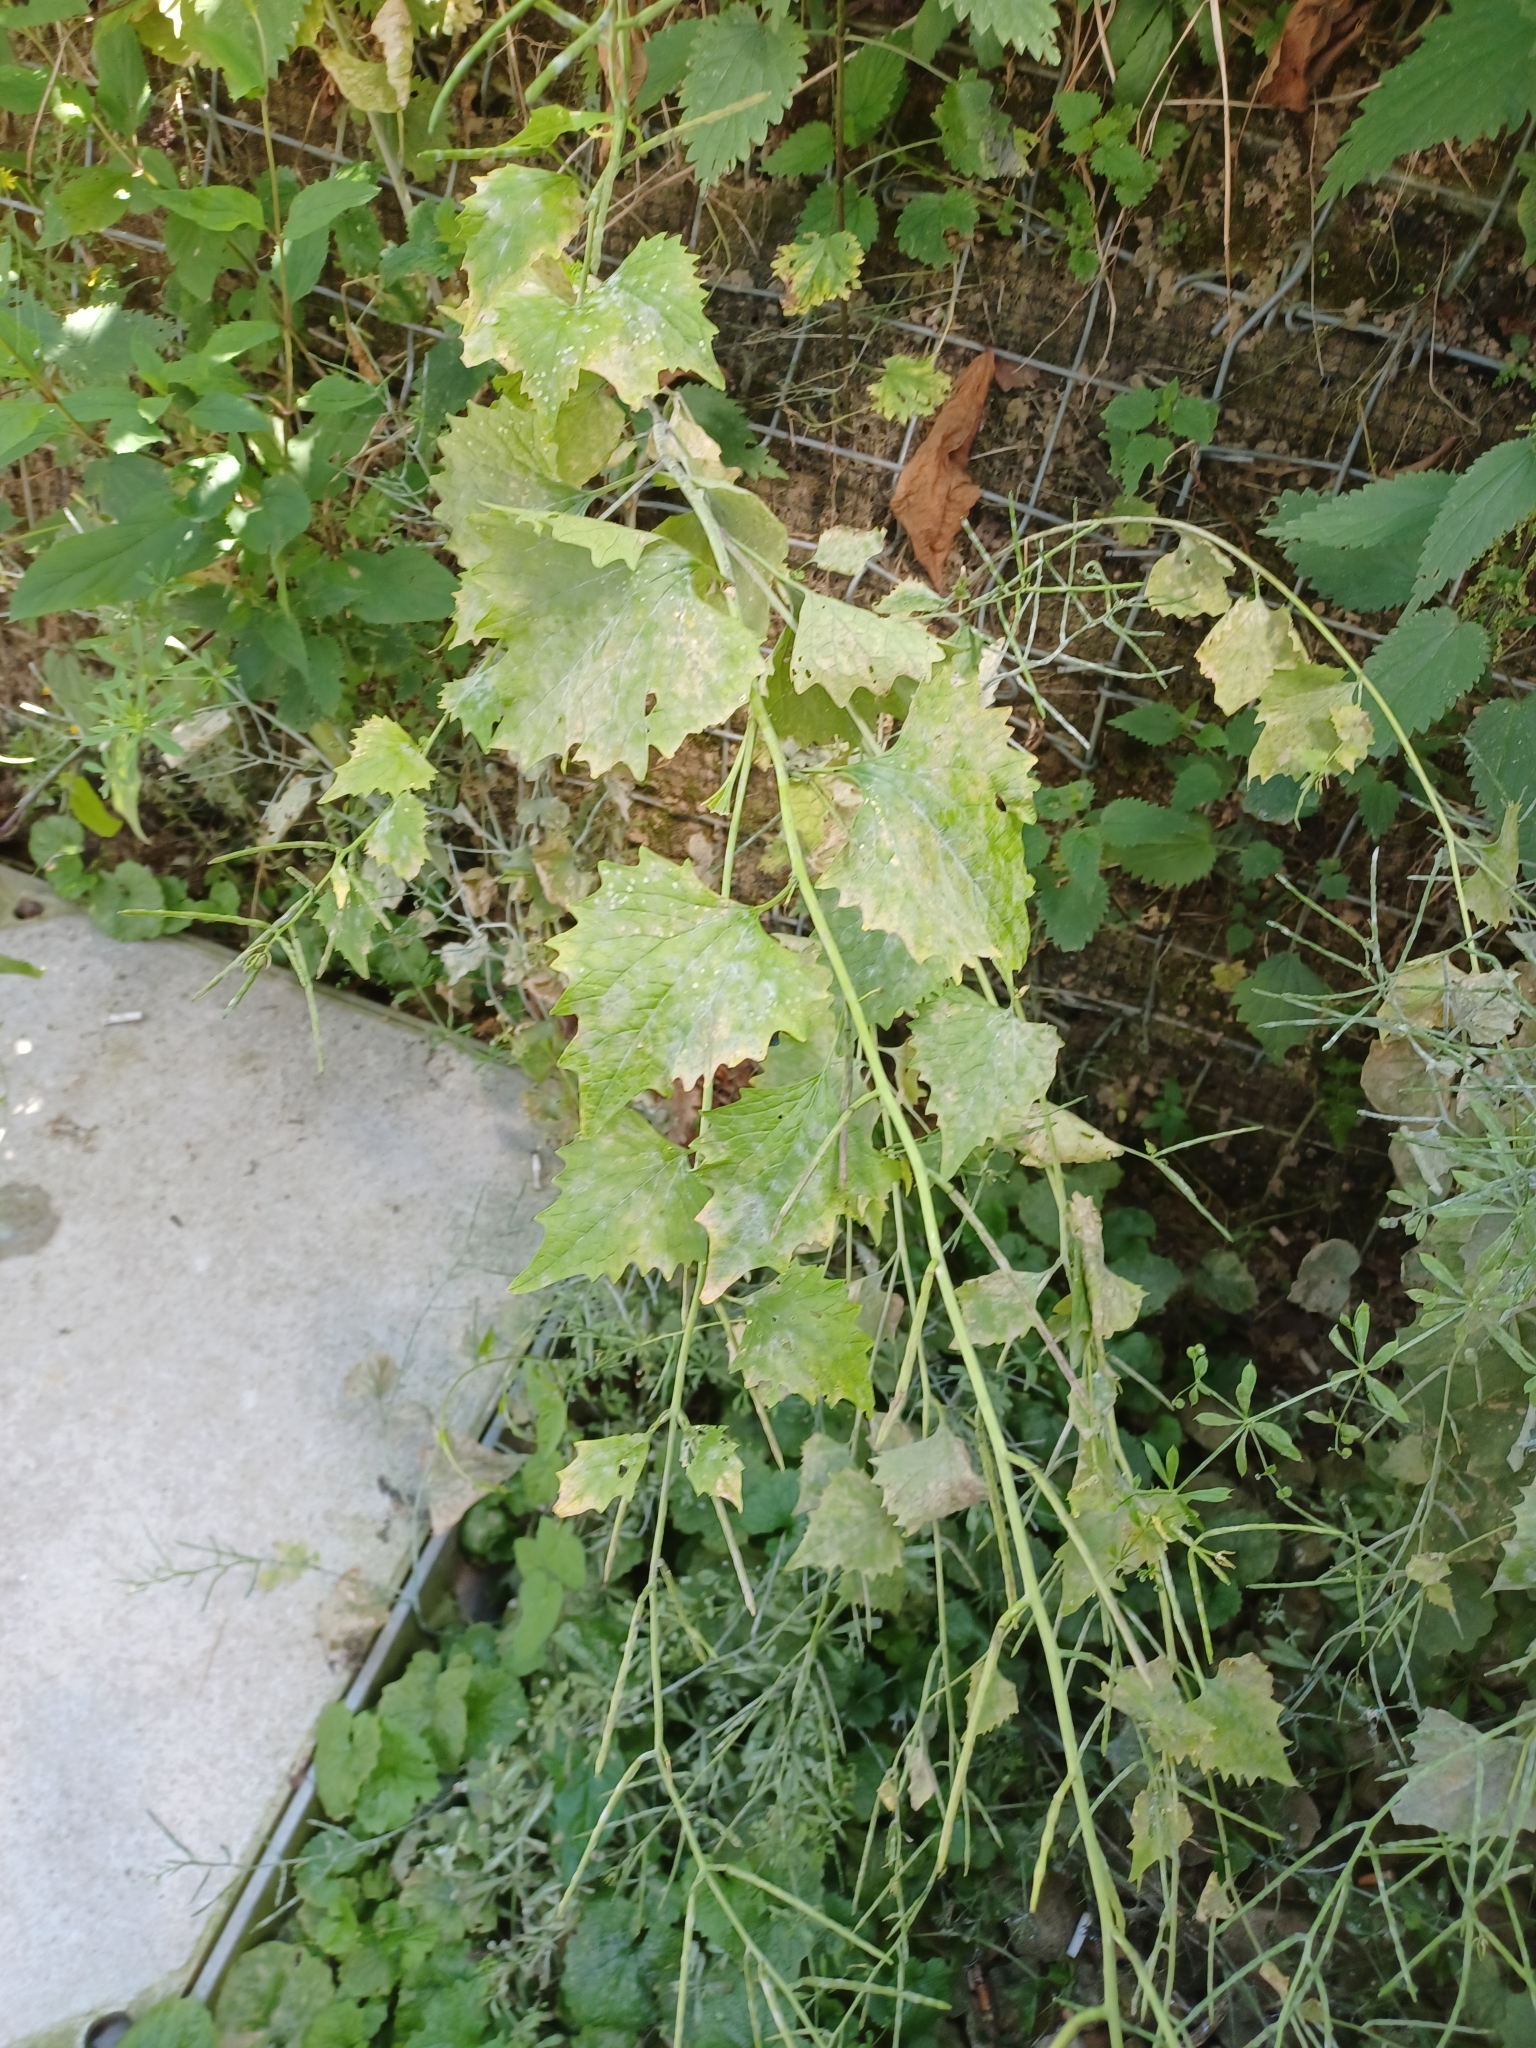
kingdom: Plantae
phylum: Tracheophyta
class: Magnoliopsida
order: Brassicales
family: Brassicaceae
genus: Alliaria
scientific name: Alliaria petiolata
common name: Garlic mustard
